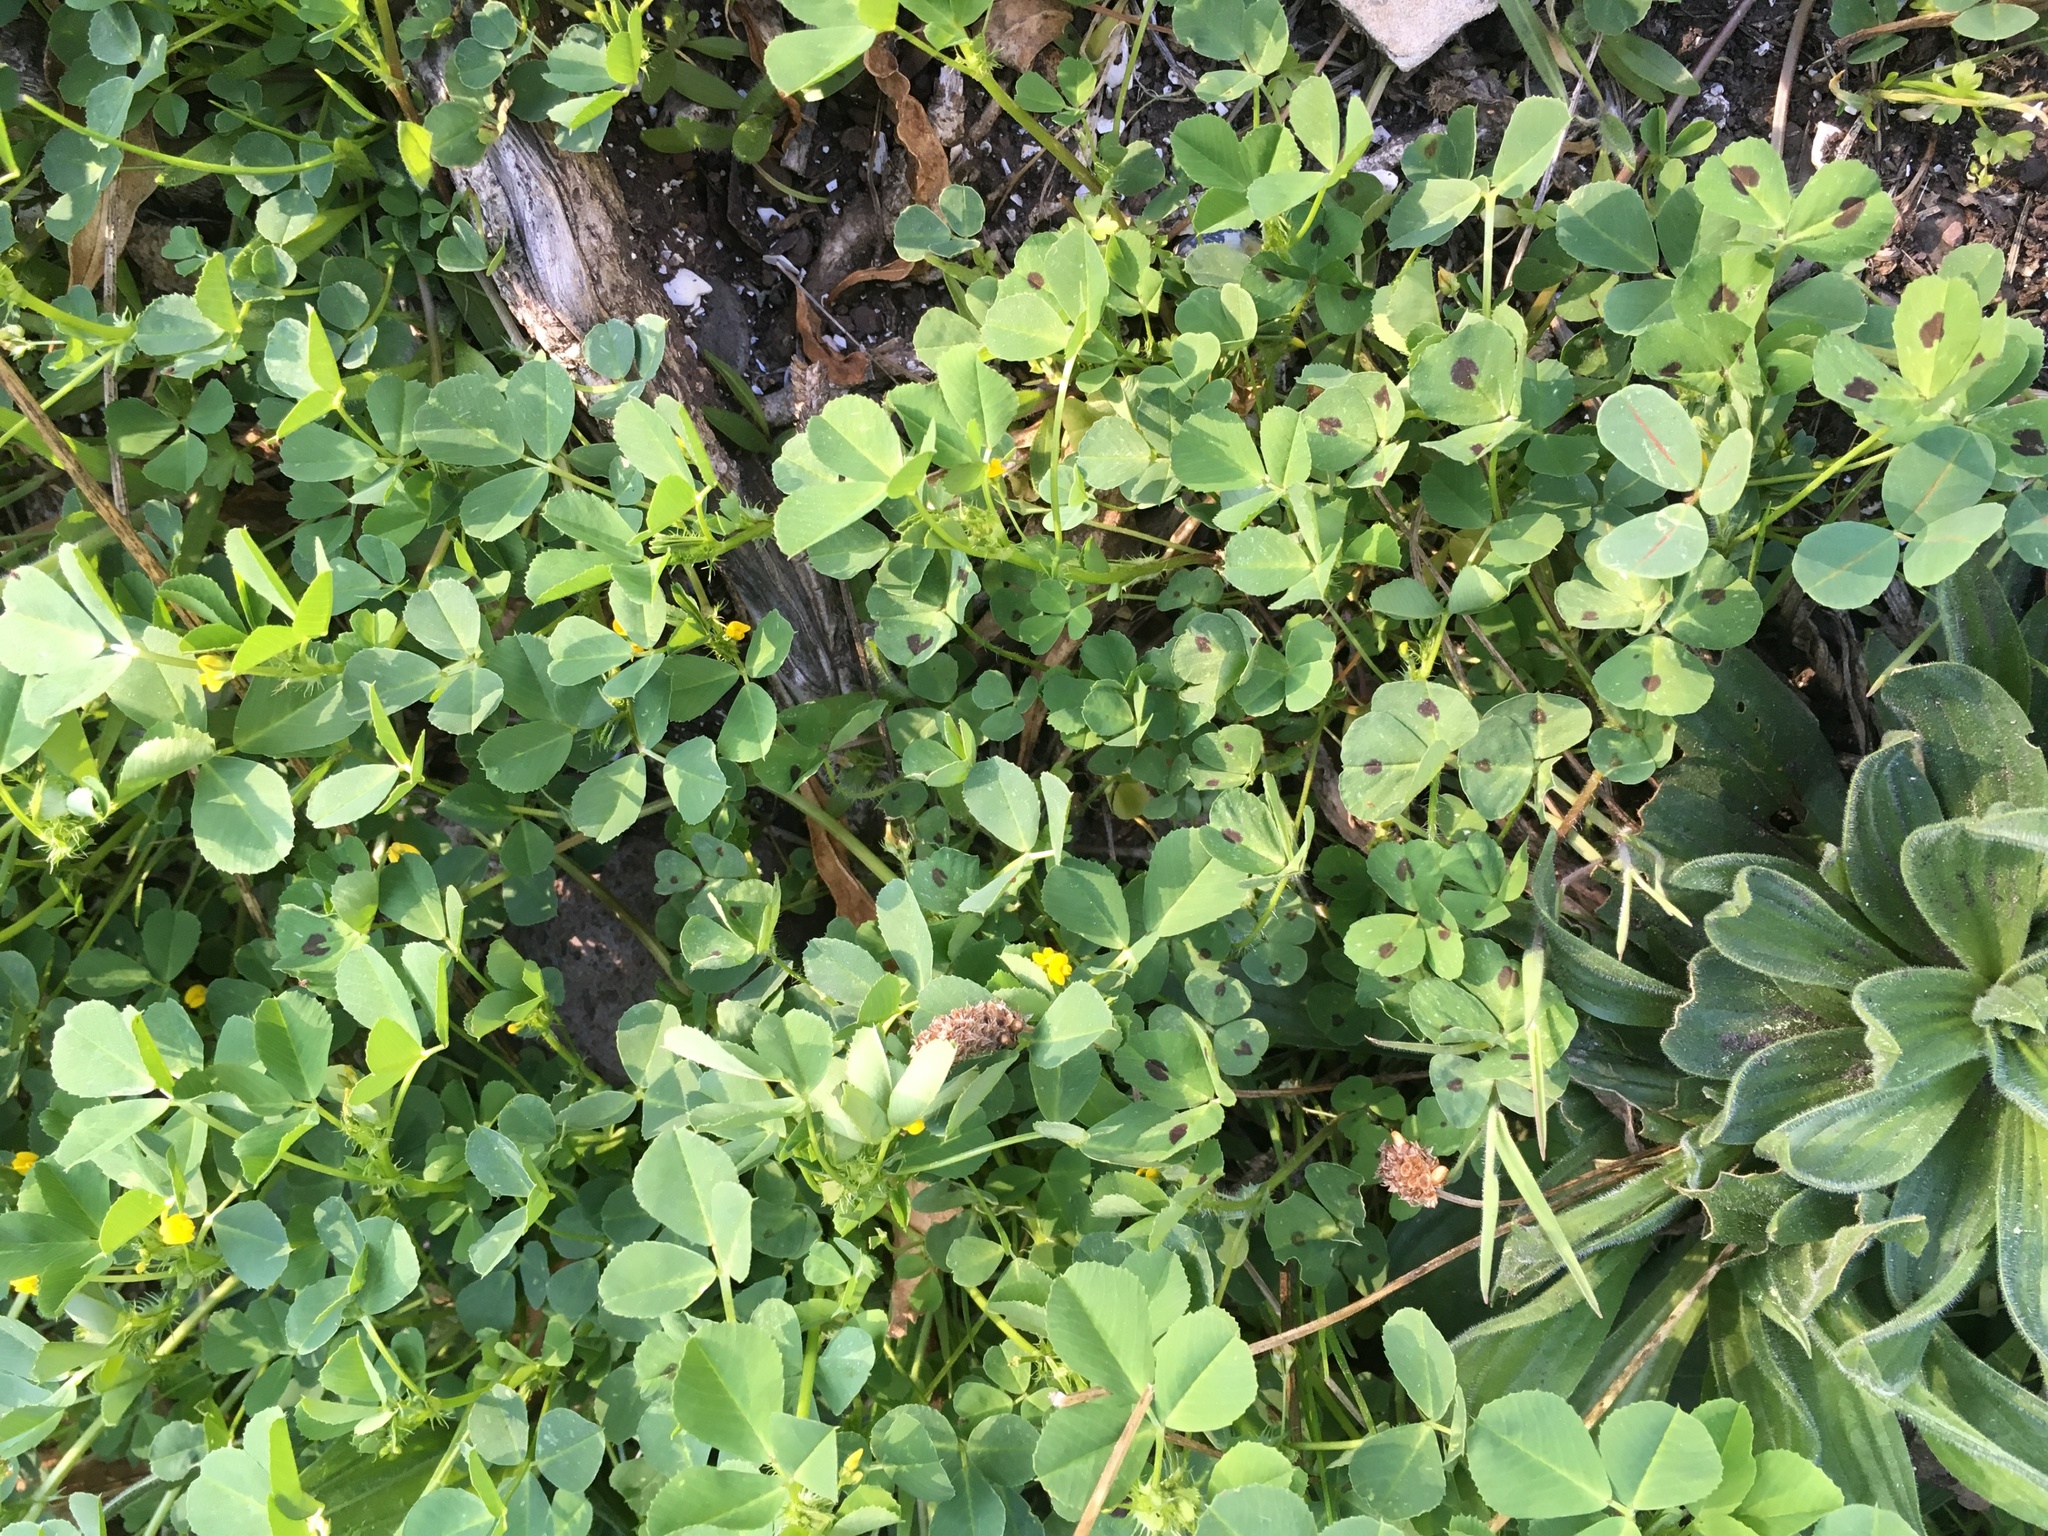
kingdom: Plantae
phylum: Tracheophyta
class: Magnoliopsida
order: Fabales
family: Fabaceae
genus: Medicago
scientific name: Medicago arabica
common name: Spotted medick
